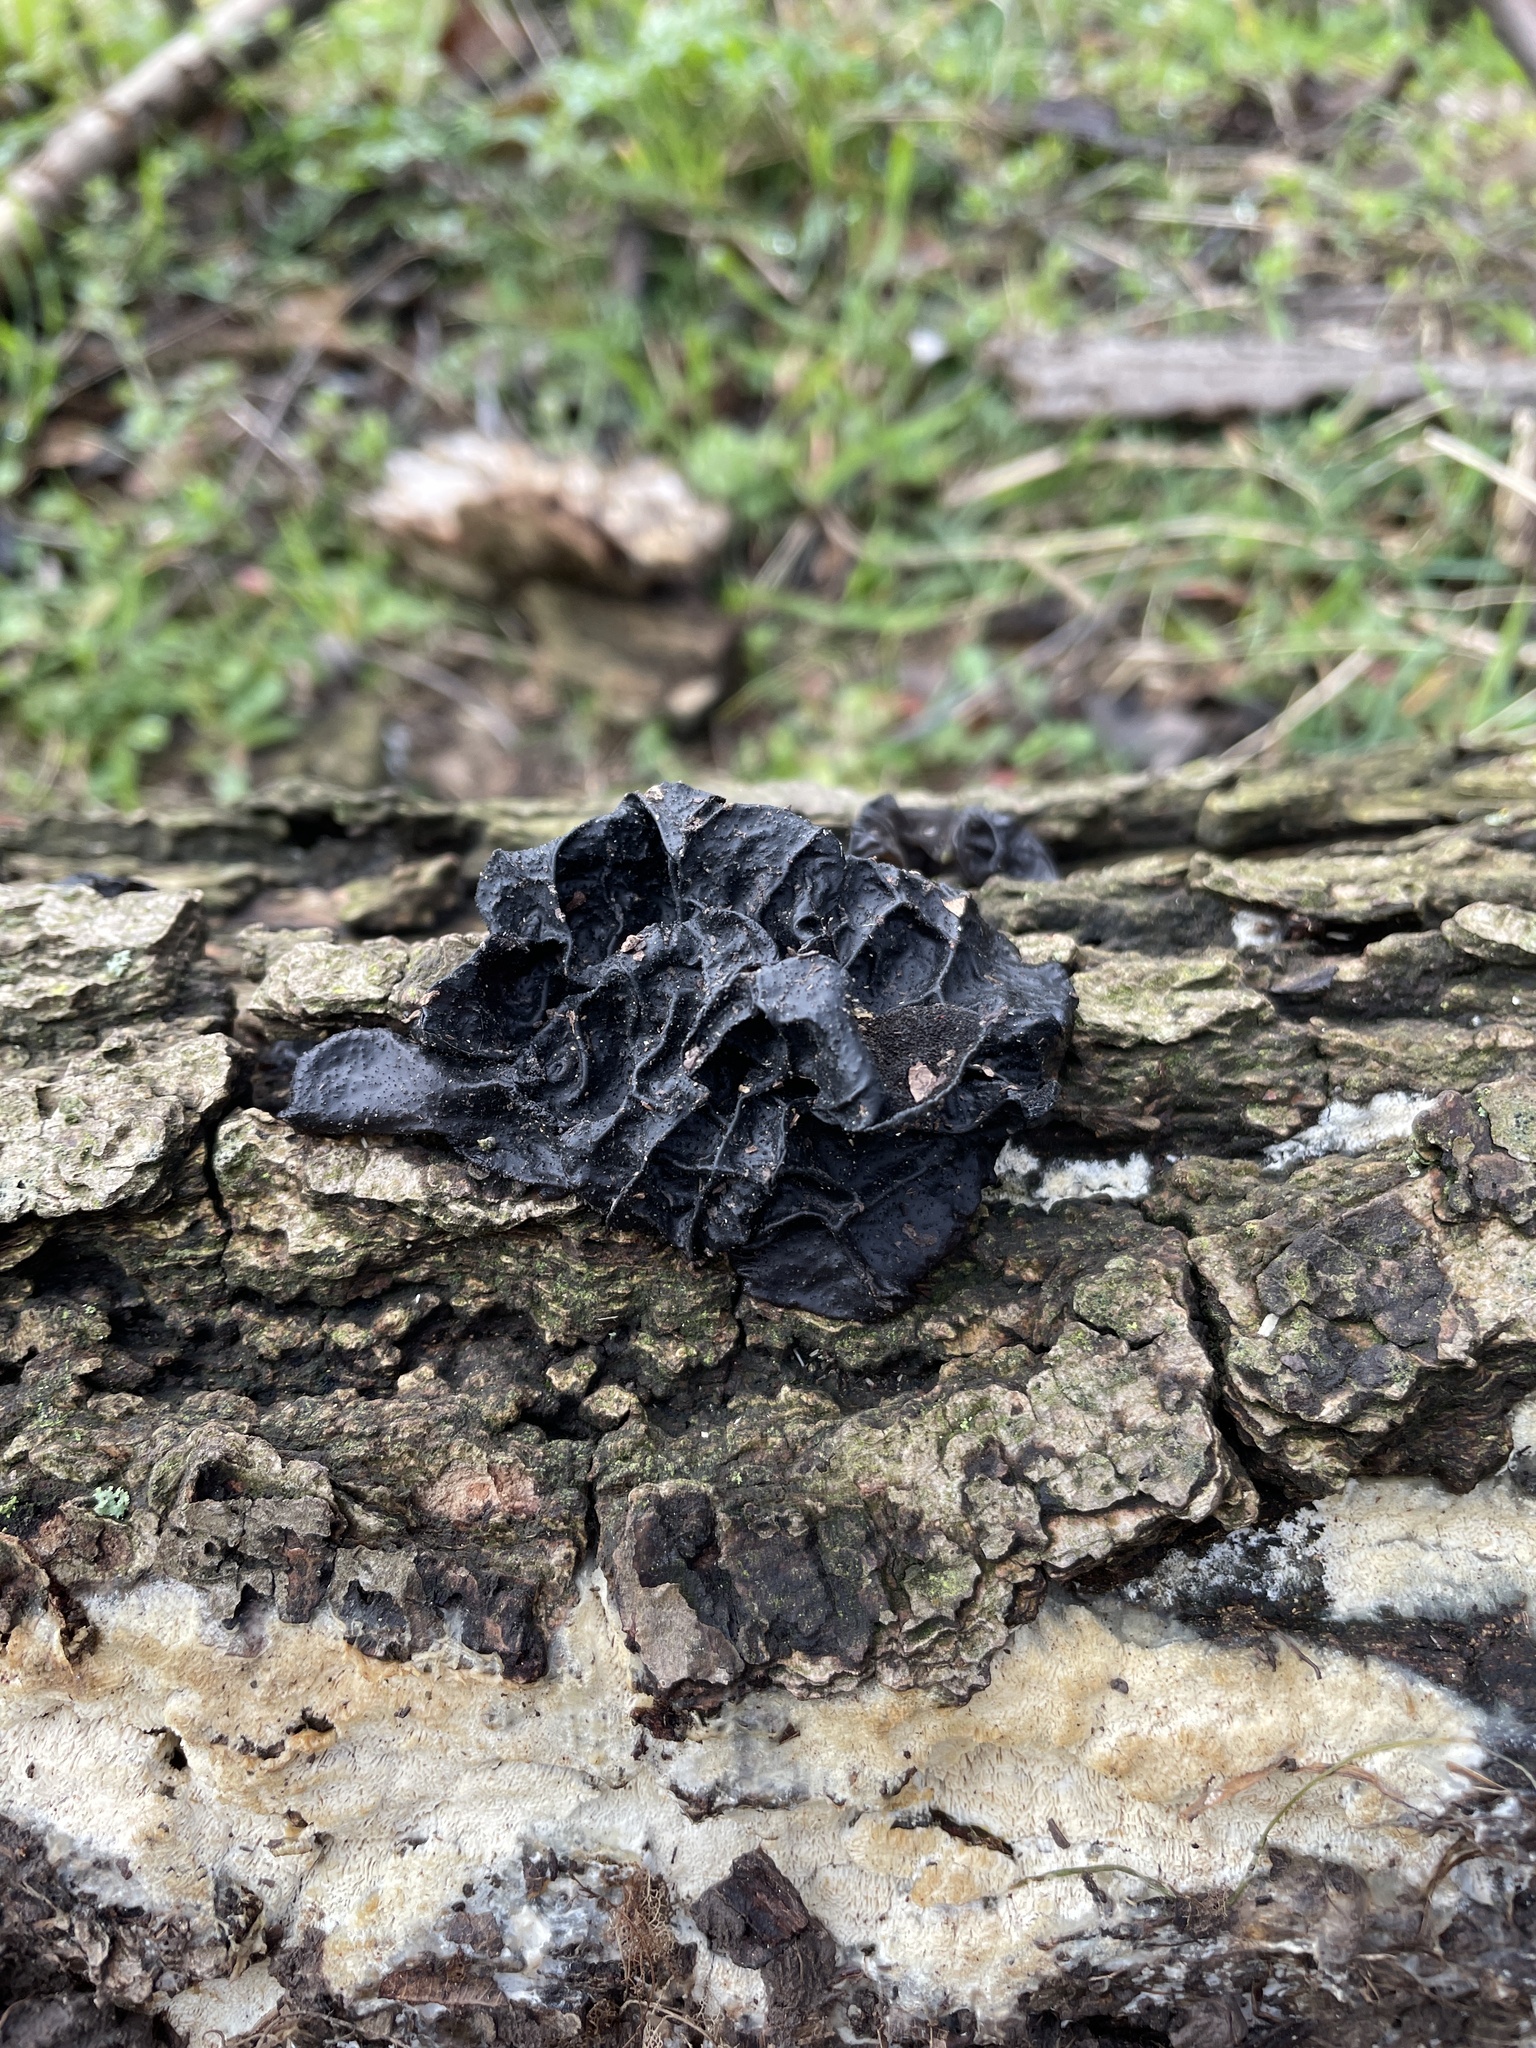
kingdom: Fungi
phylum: Basidiomycota
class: Agaricomycetes
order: Auriculariales
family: Auriculariaceae
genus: Exidia
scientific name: Exidia
